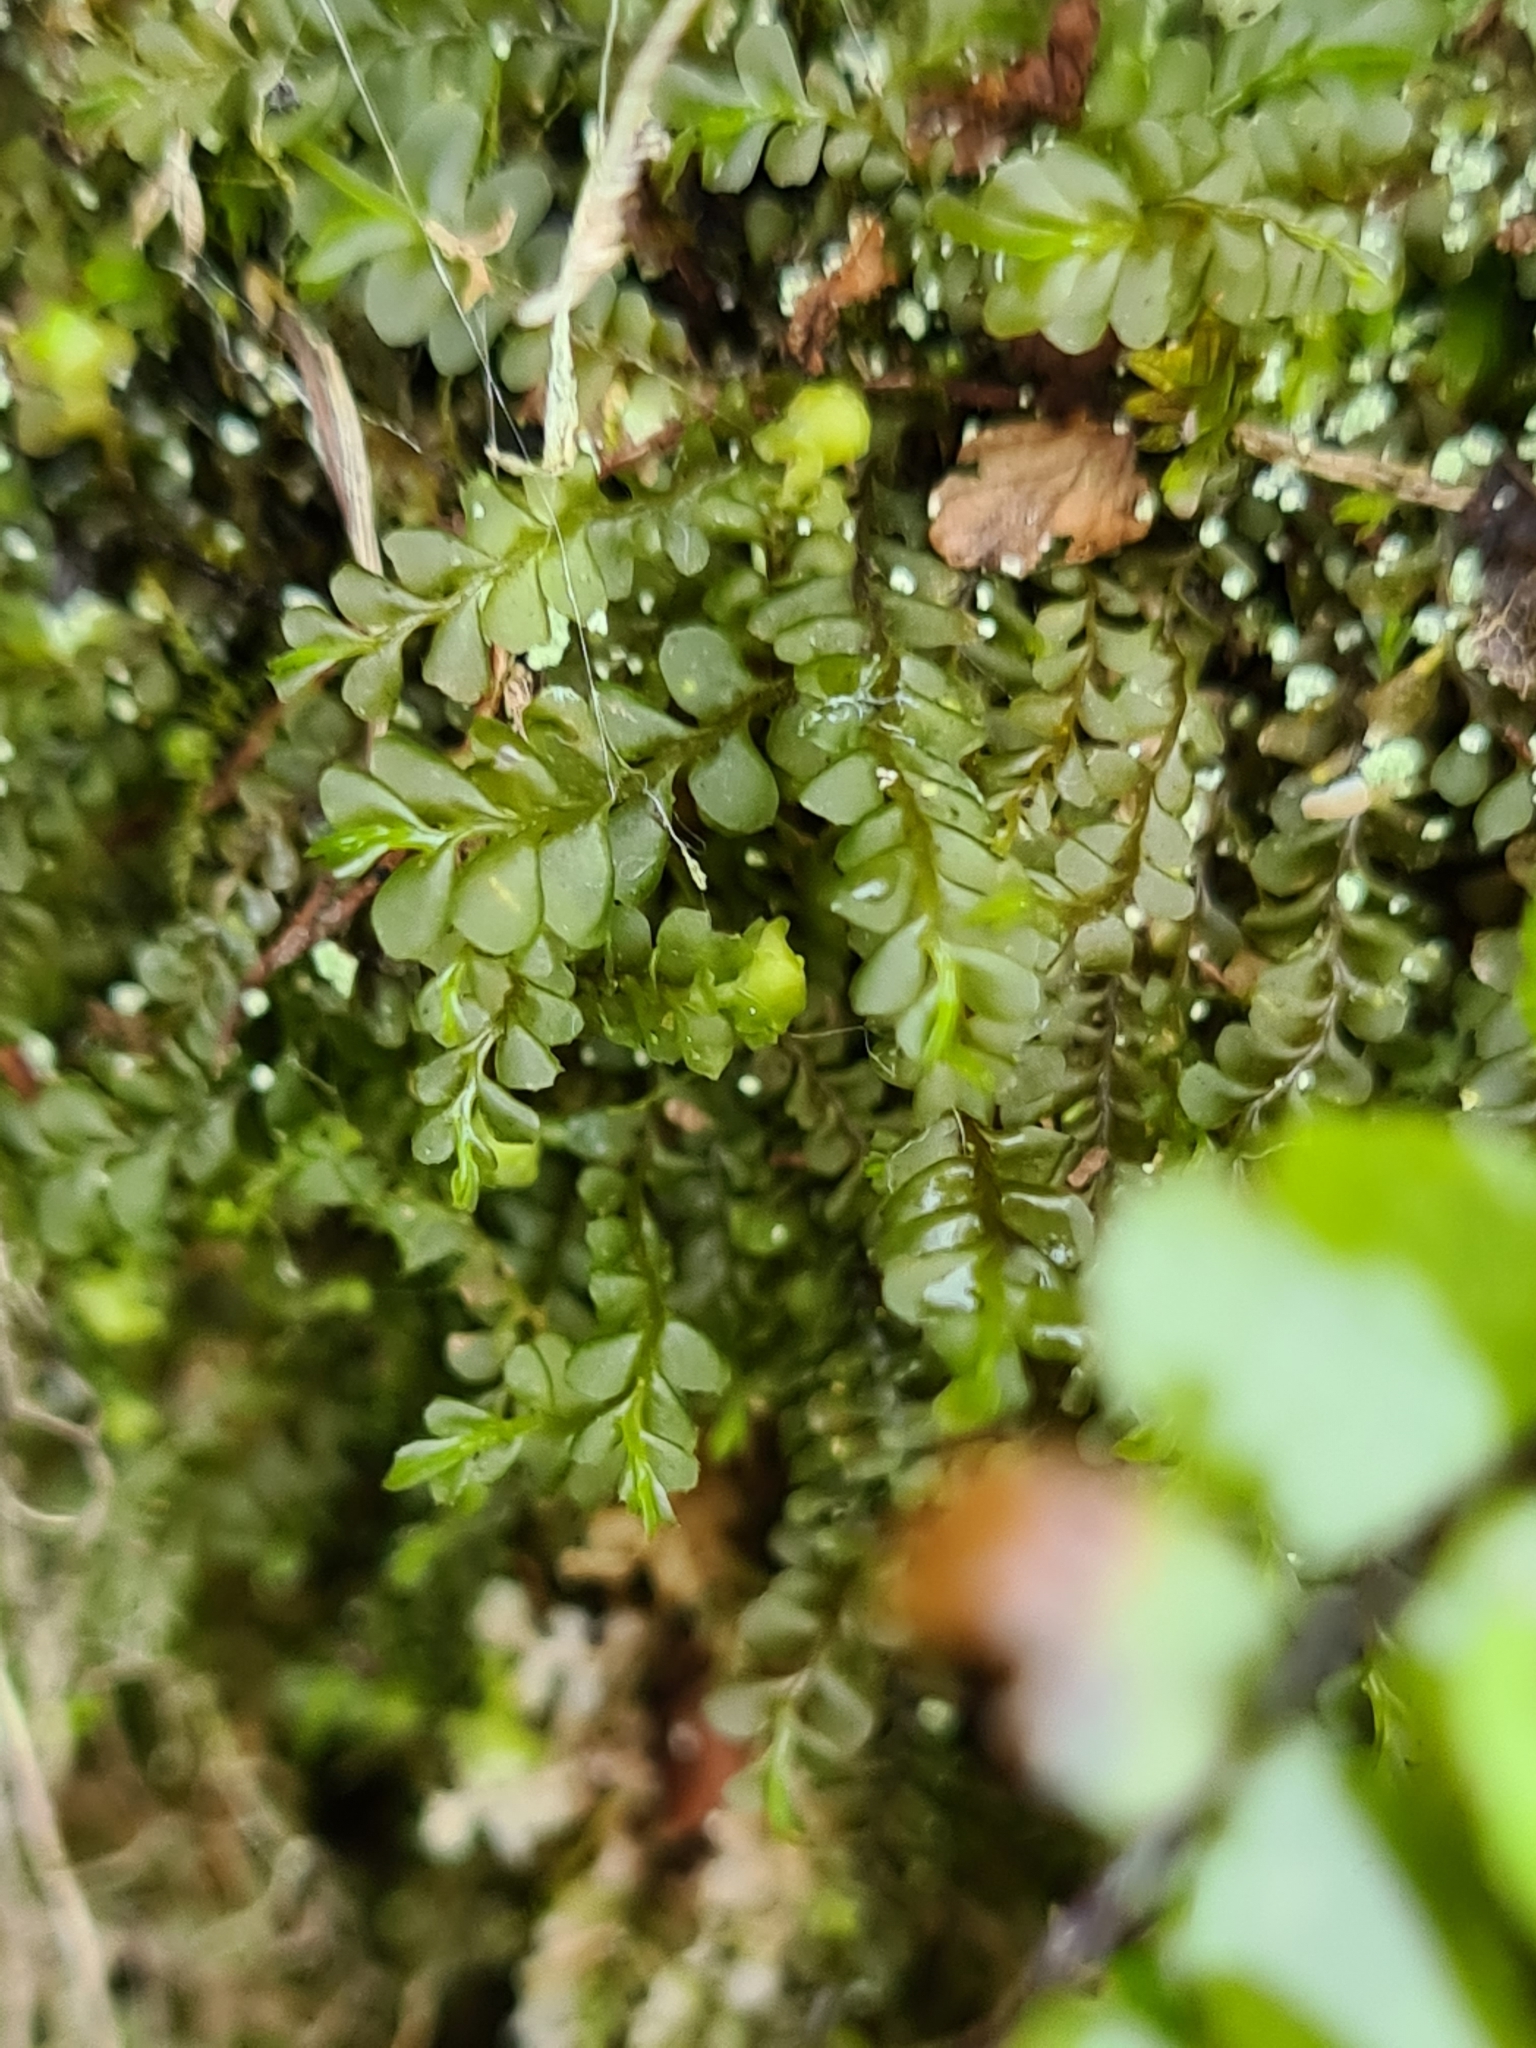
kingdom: Plantae
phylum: Marchantiophyta
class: Jungermanniopsida
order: Jungermanniales
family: Plagiochilaceae
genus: Plagiochila
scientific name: Plagiochila porelloides
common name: Lesser featherwort
